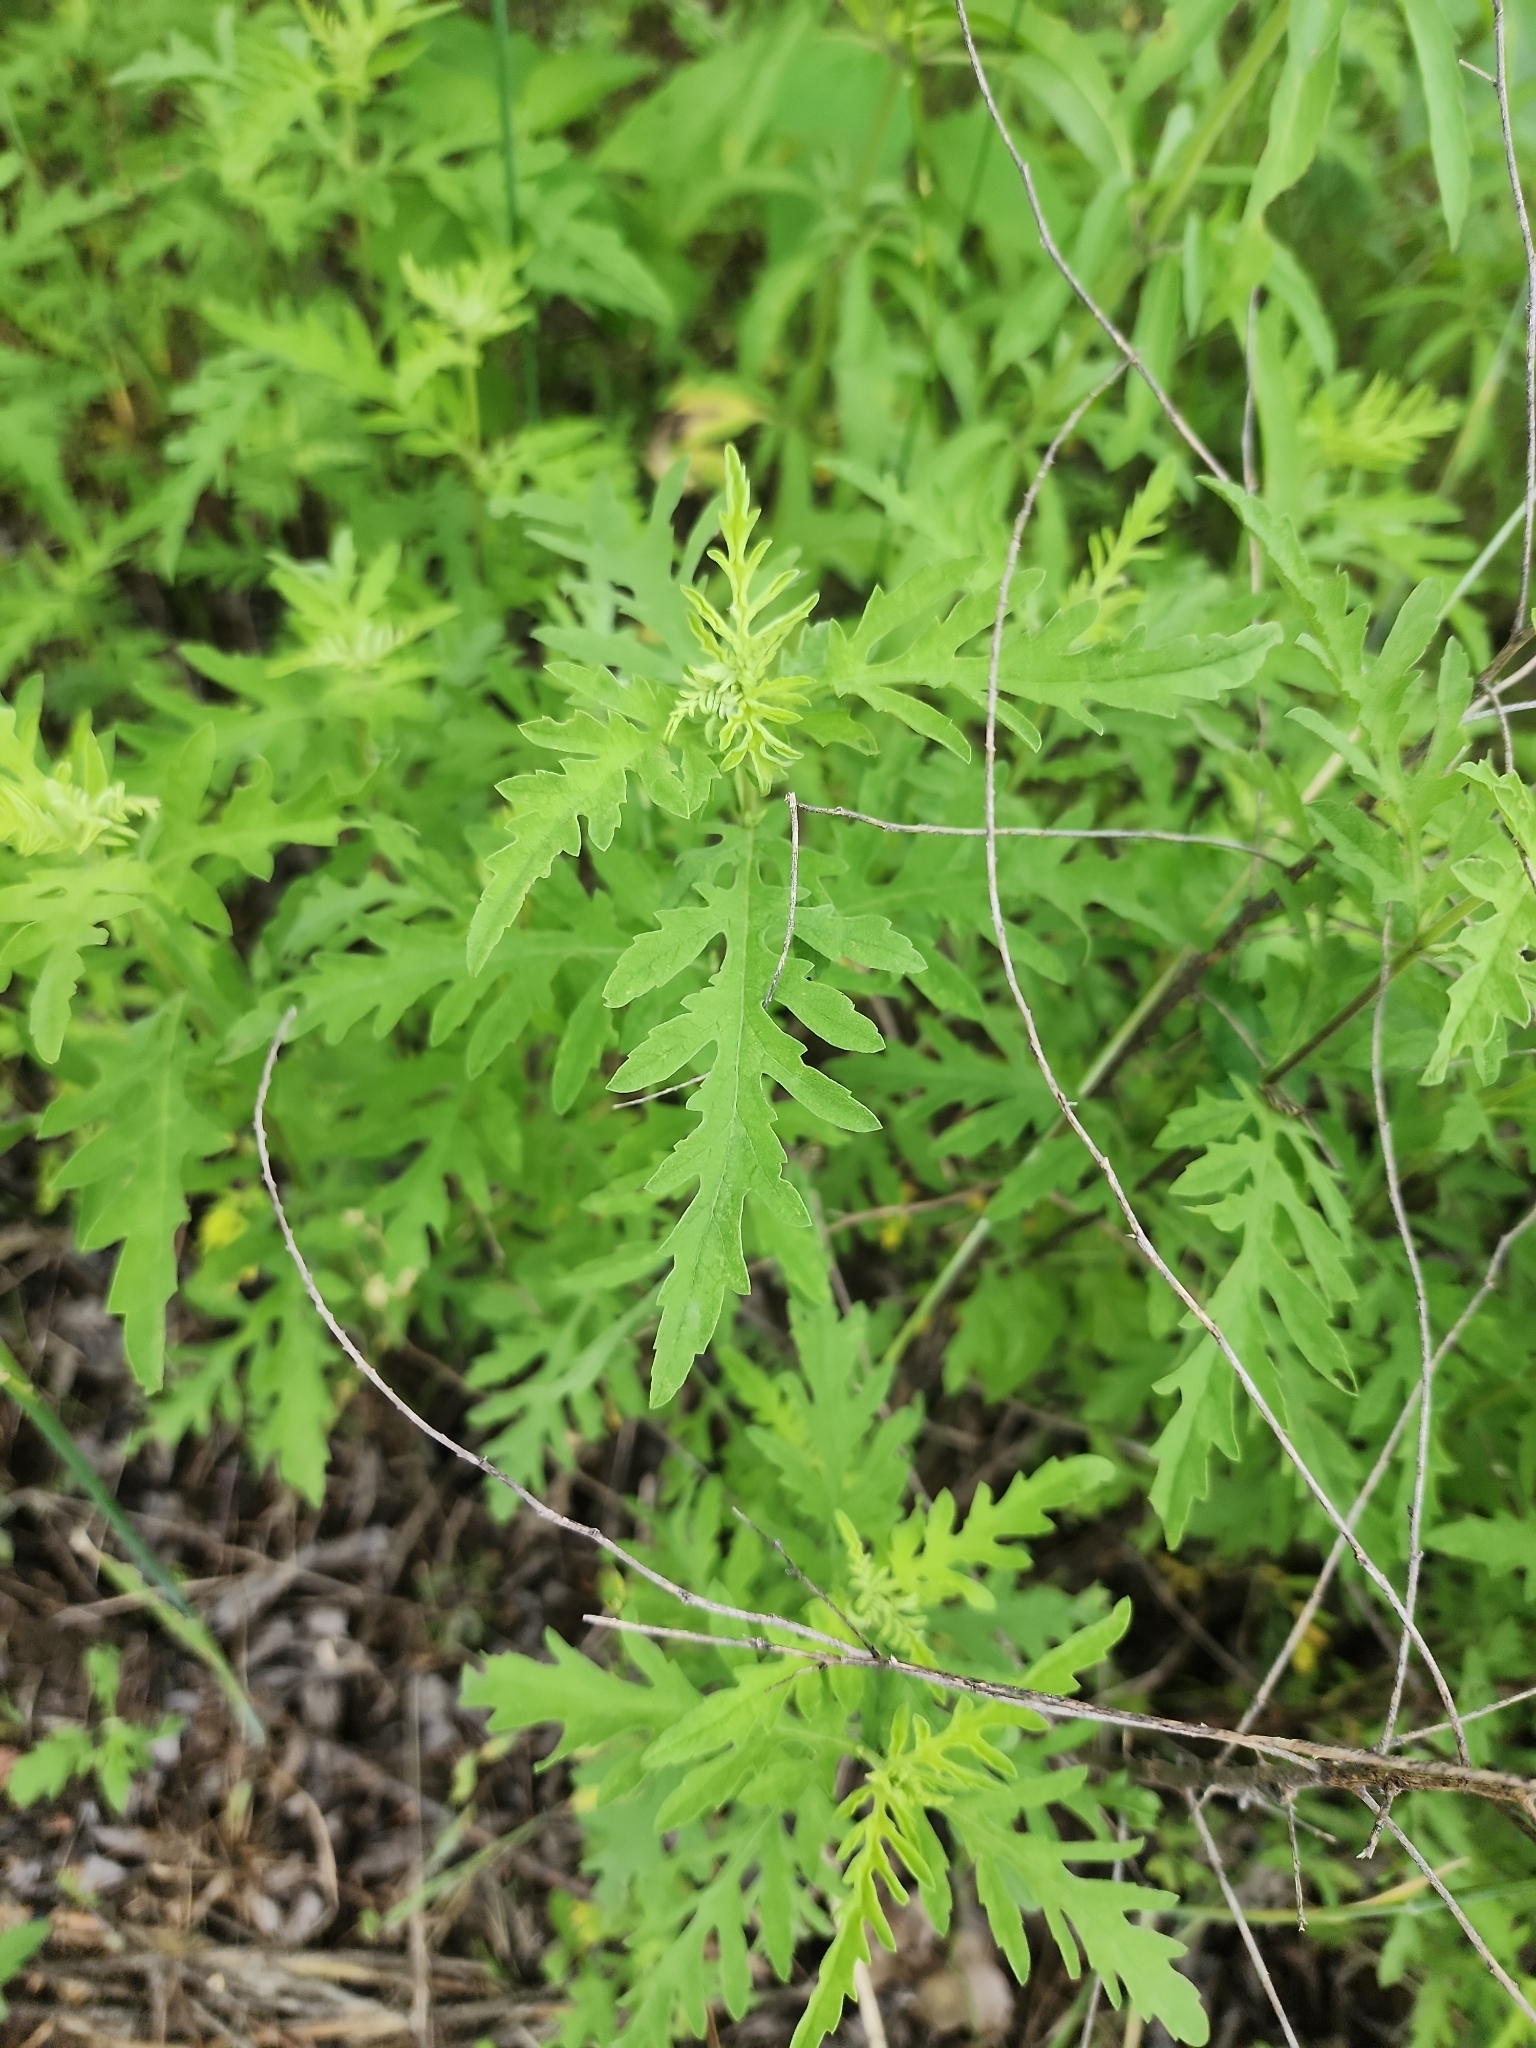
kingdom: Plantae
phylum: Tracheophyta
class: Magnoliopsida
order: Asterales
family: Asteraceae
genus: Ambrosia
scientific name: Ambrosia psilostachya
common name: Perennial ragweed
